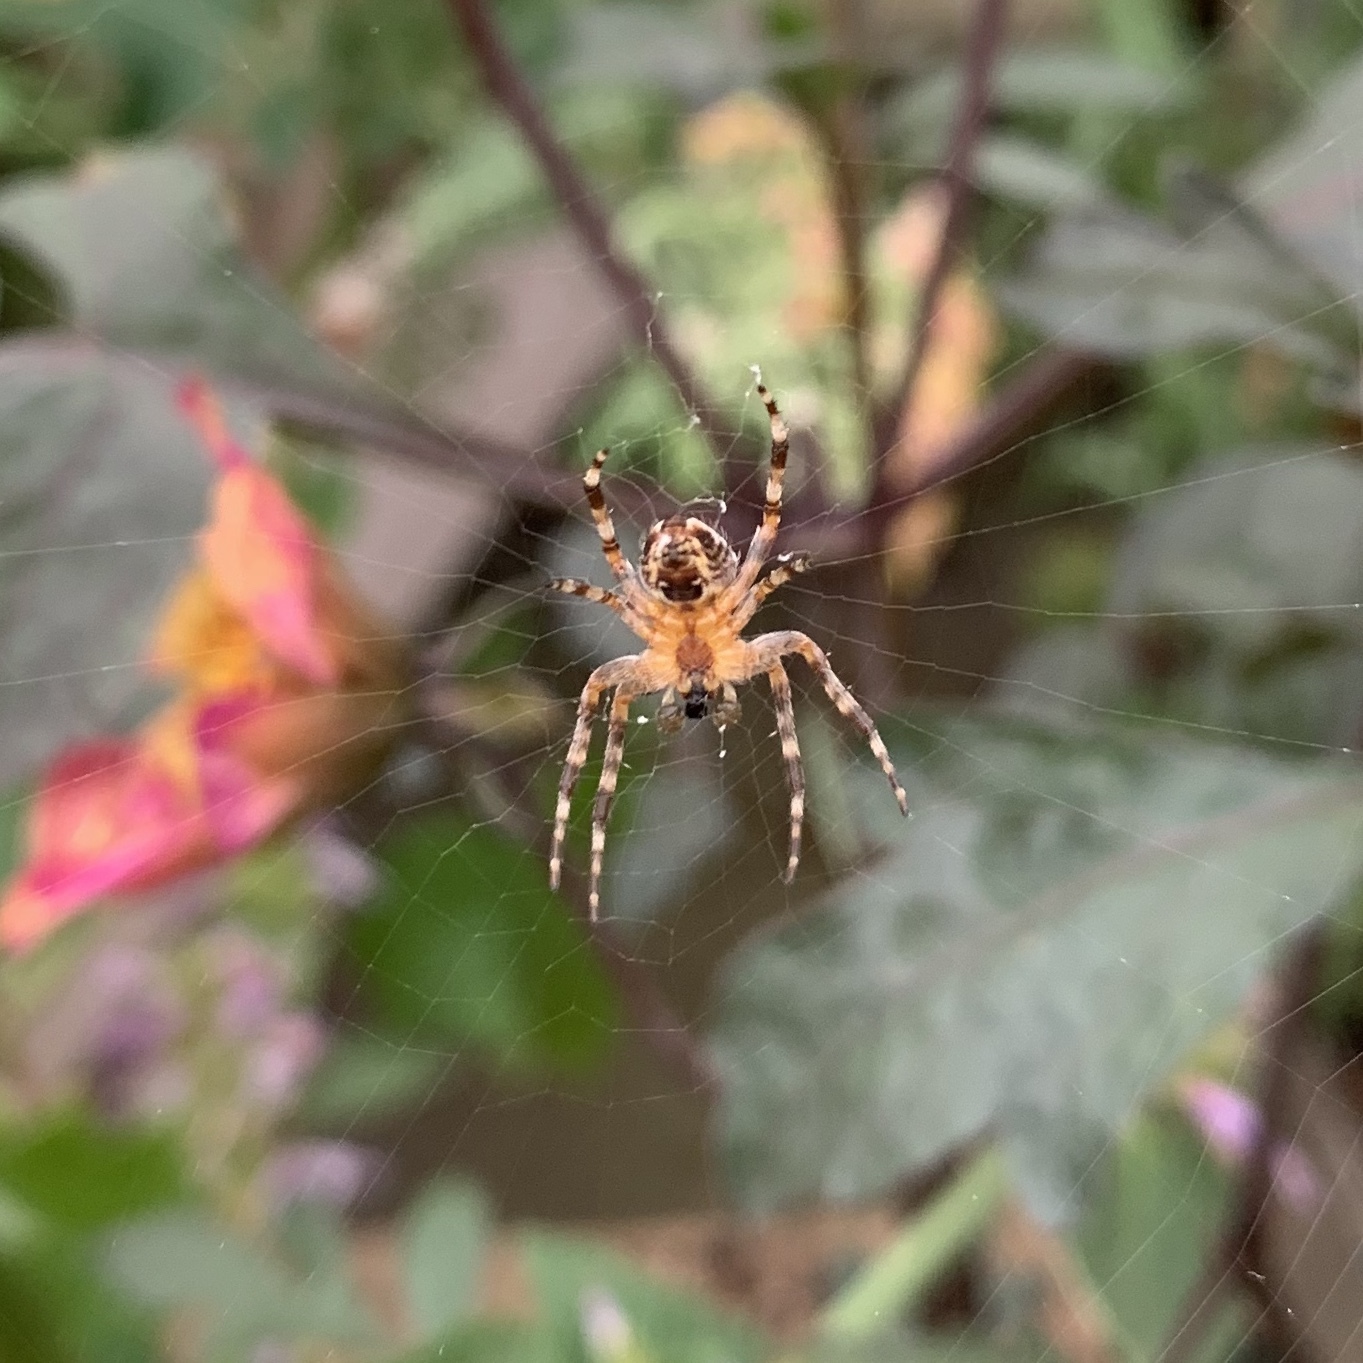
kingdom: Animalia
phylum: Arthropoda
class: Arachnida
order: Araneae
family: Araneidae
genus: Araneus
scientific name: Araneus diadematus
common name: Cross orbweaver
